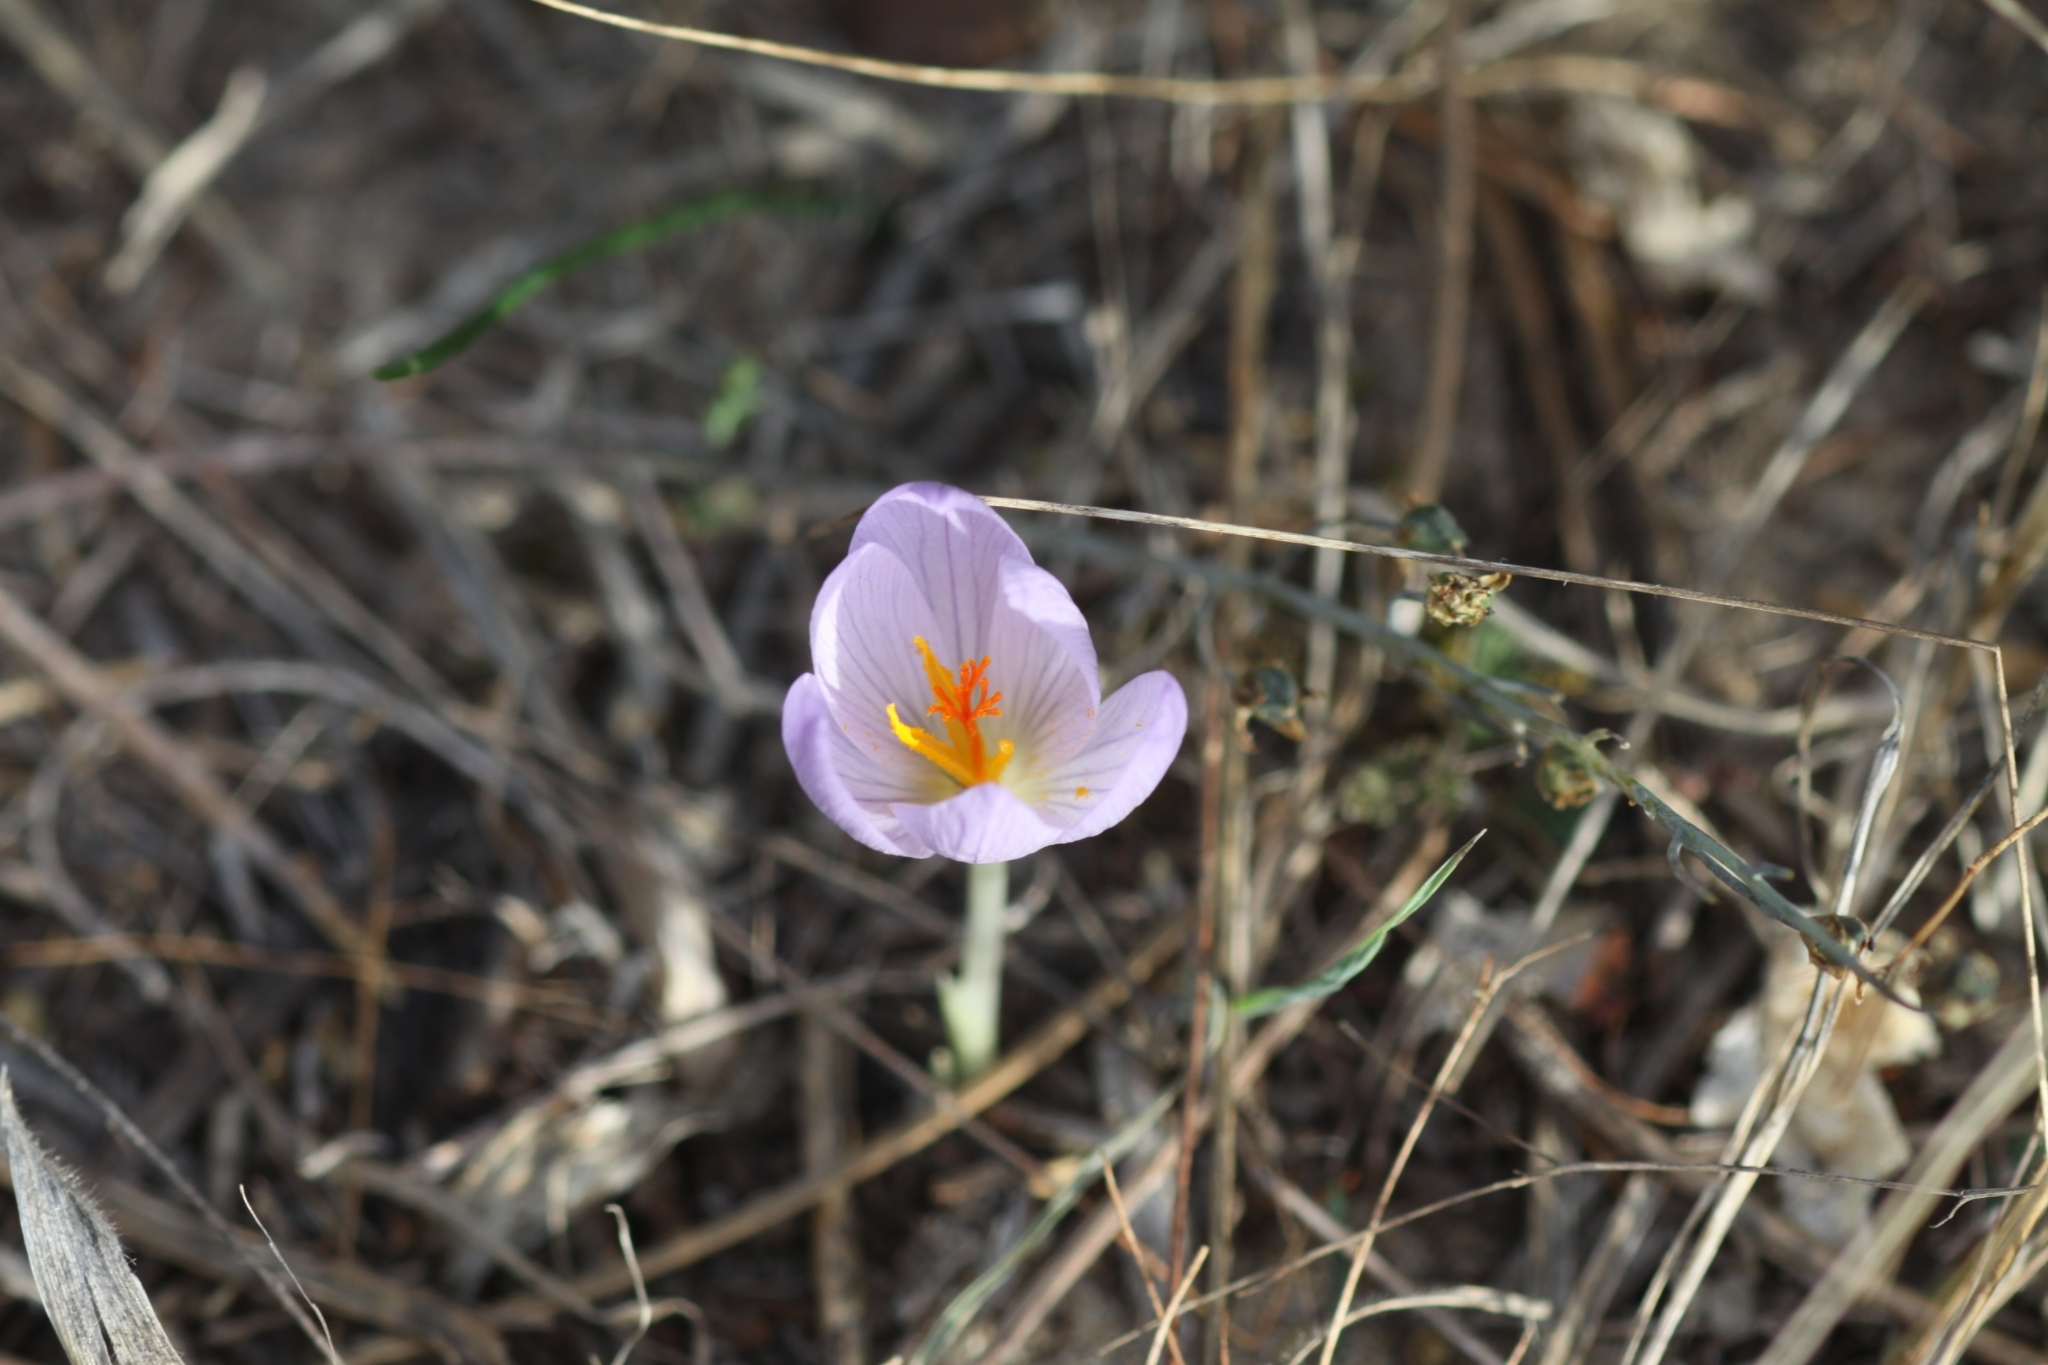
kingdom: Plantae
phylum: Tracheophyta
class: Liliopsida
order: Asparagales
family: Iridaceae
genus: Crocus
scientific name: Crocus serotinus
